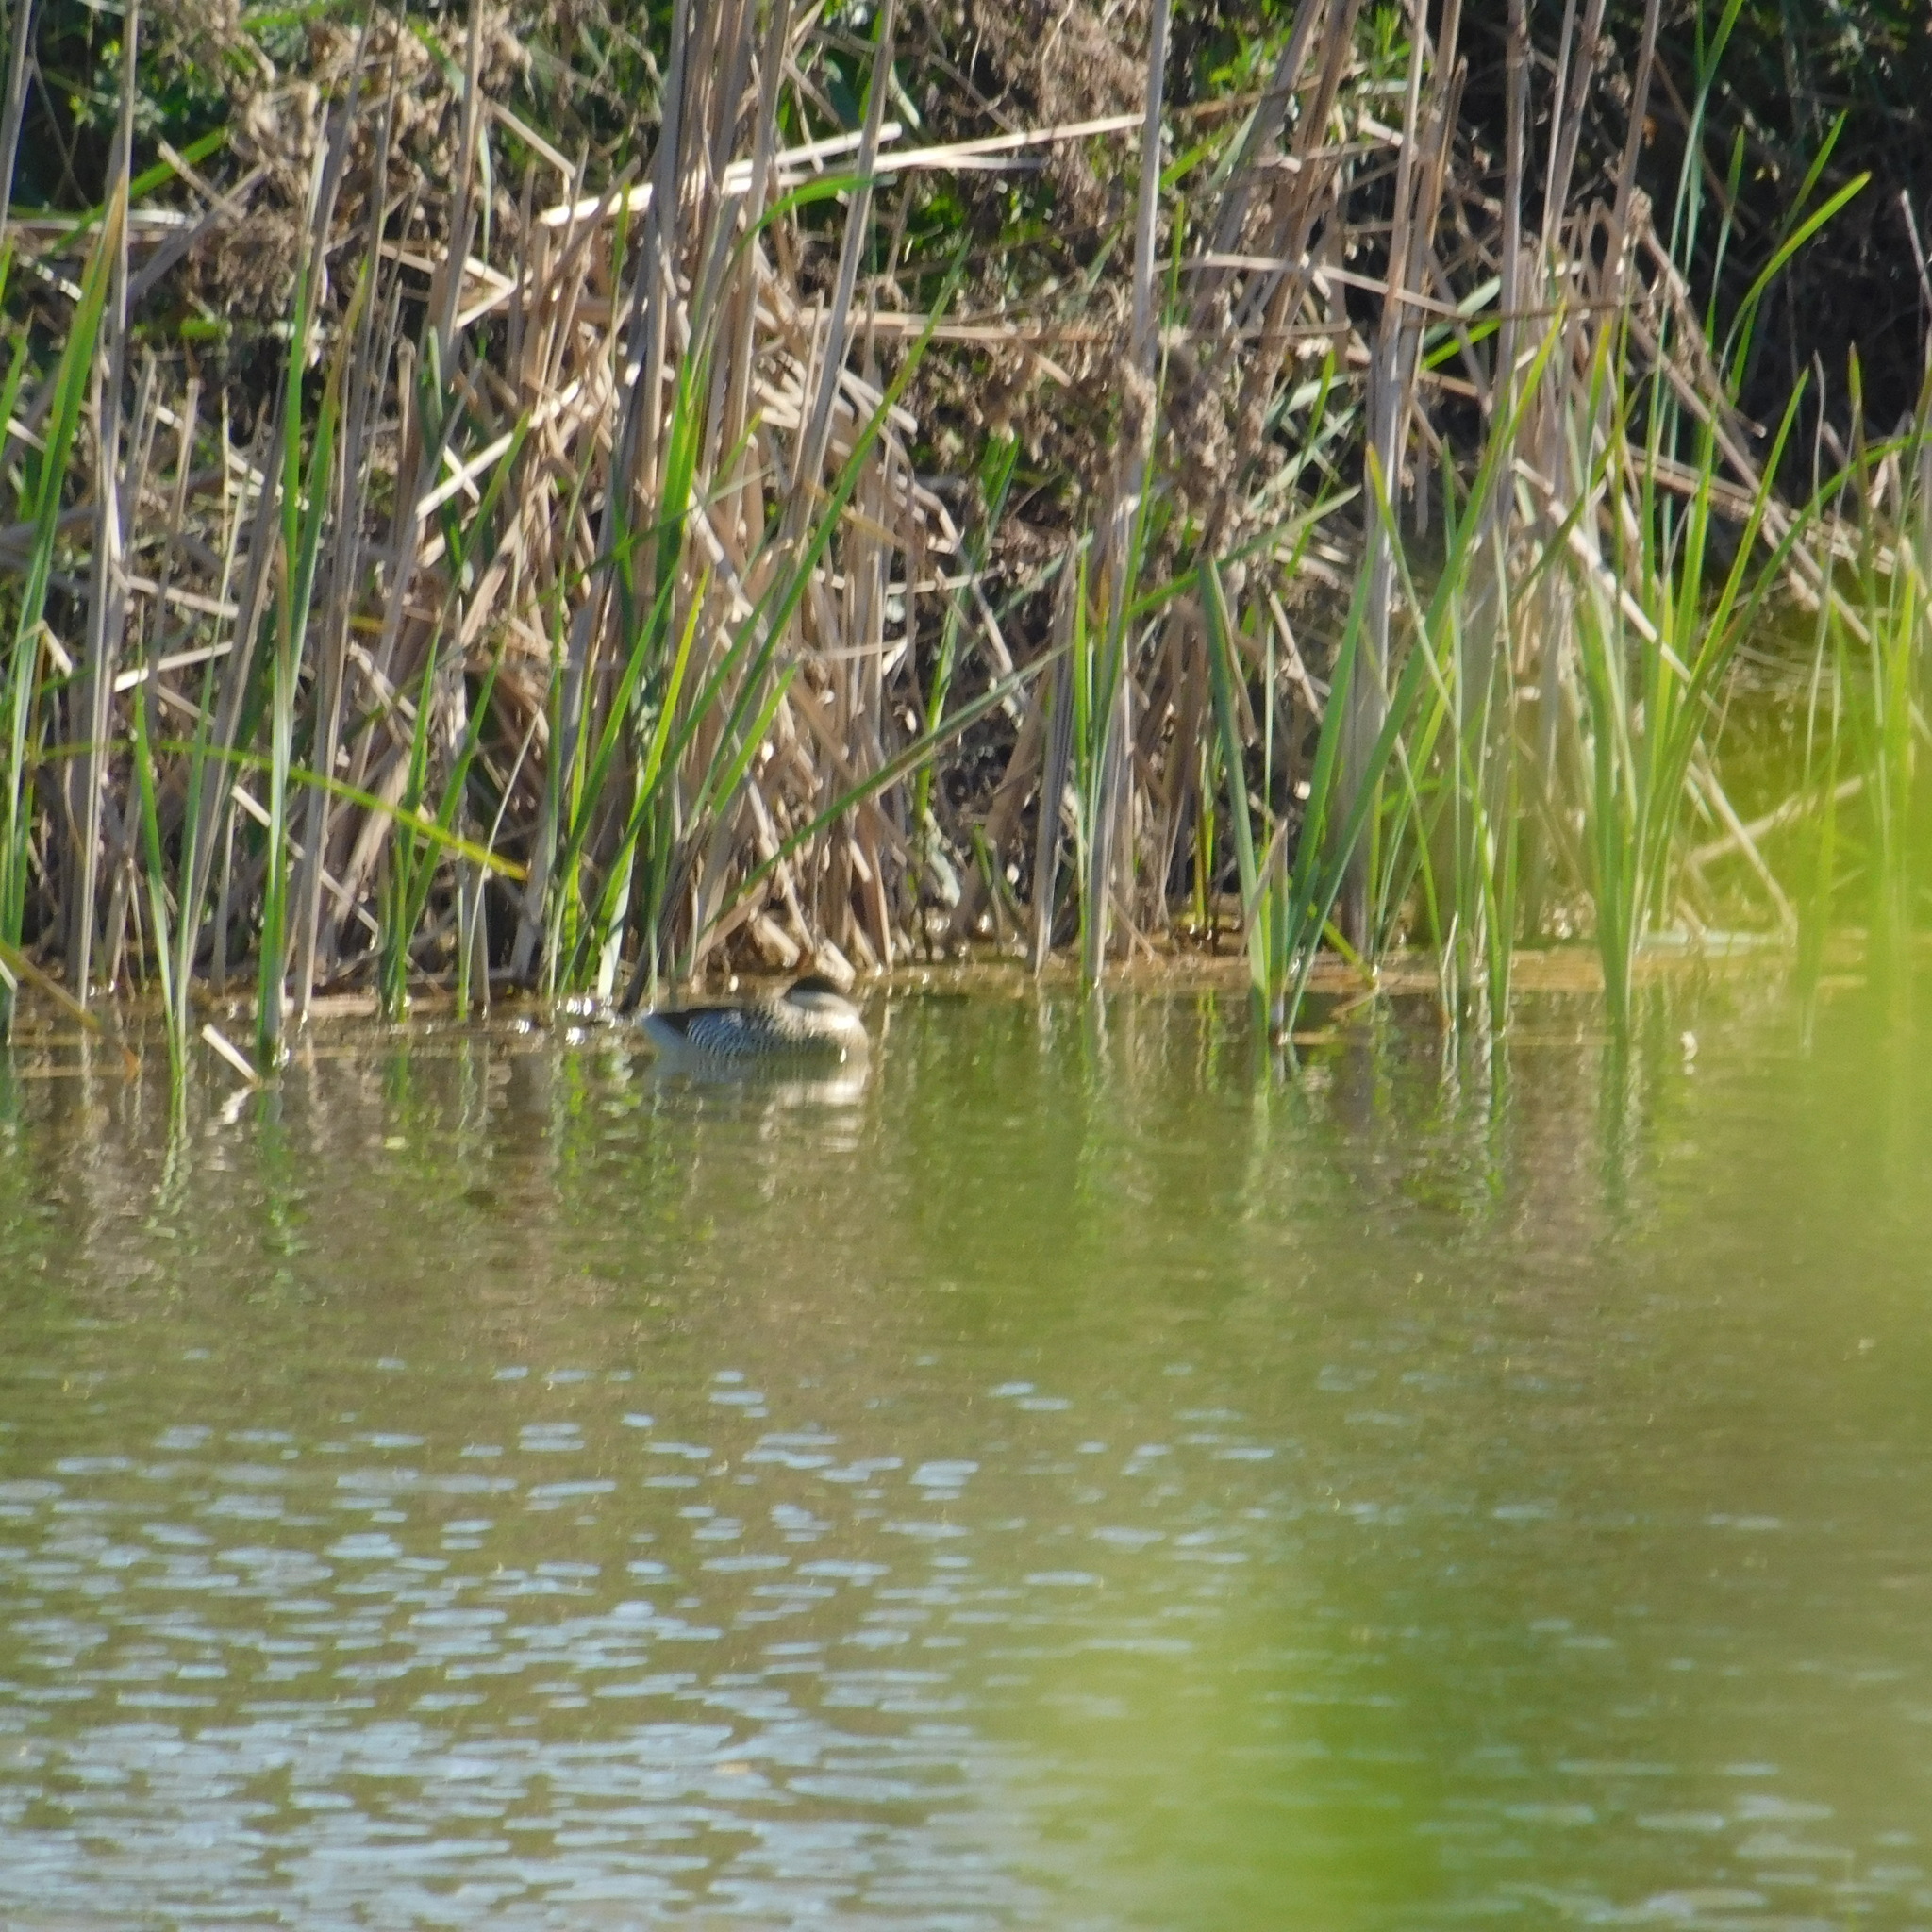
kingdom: Animalia
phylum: Chordata
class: Aves
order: Anseriformes
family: Anatidae
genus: Spatula
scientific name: Spatula versicolor
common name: Silver teal
